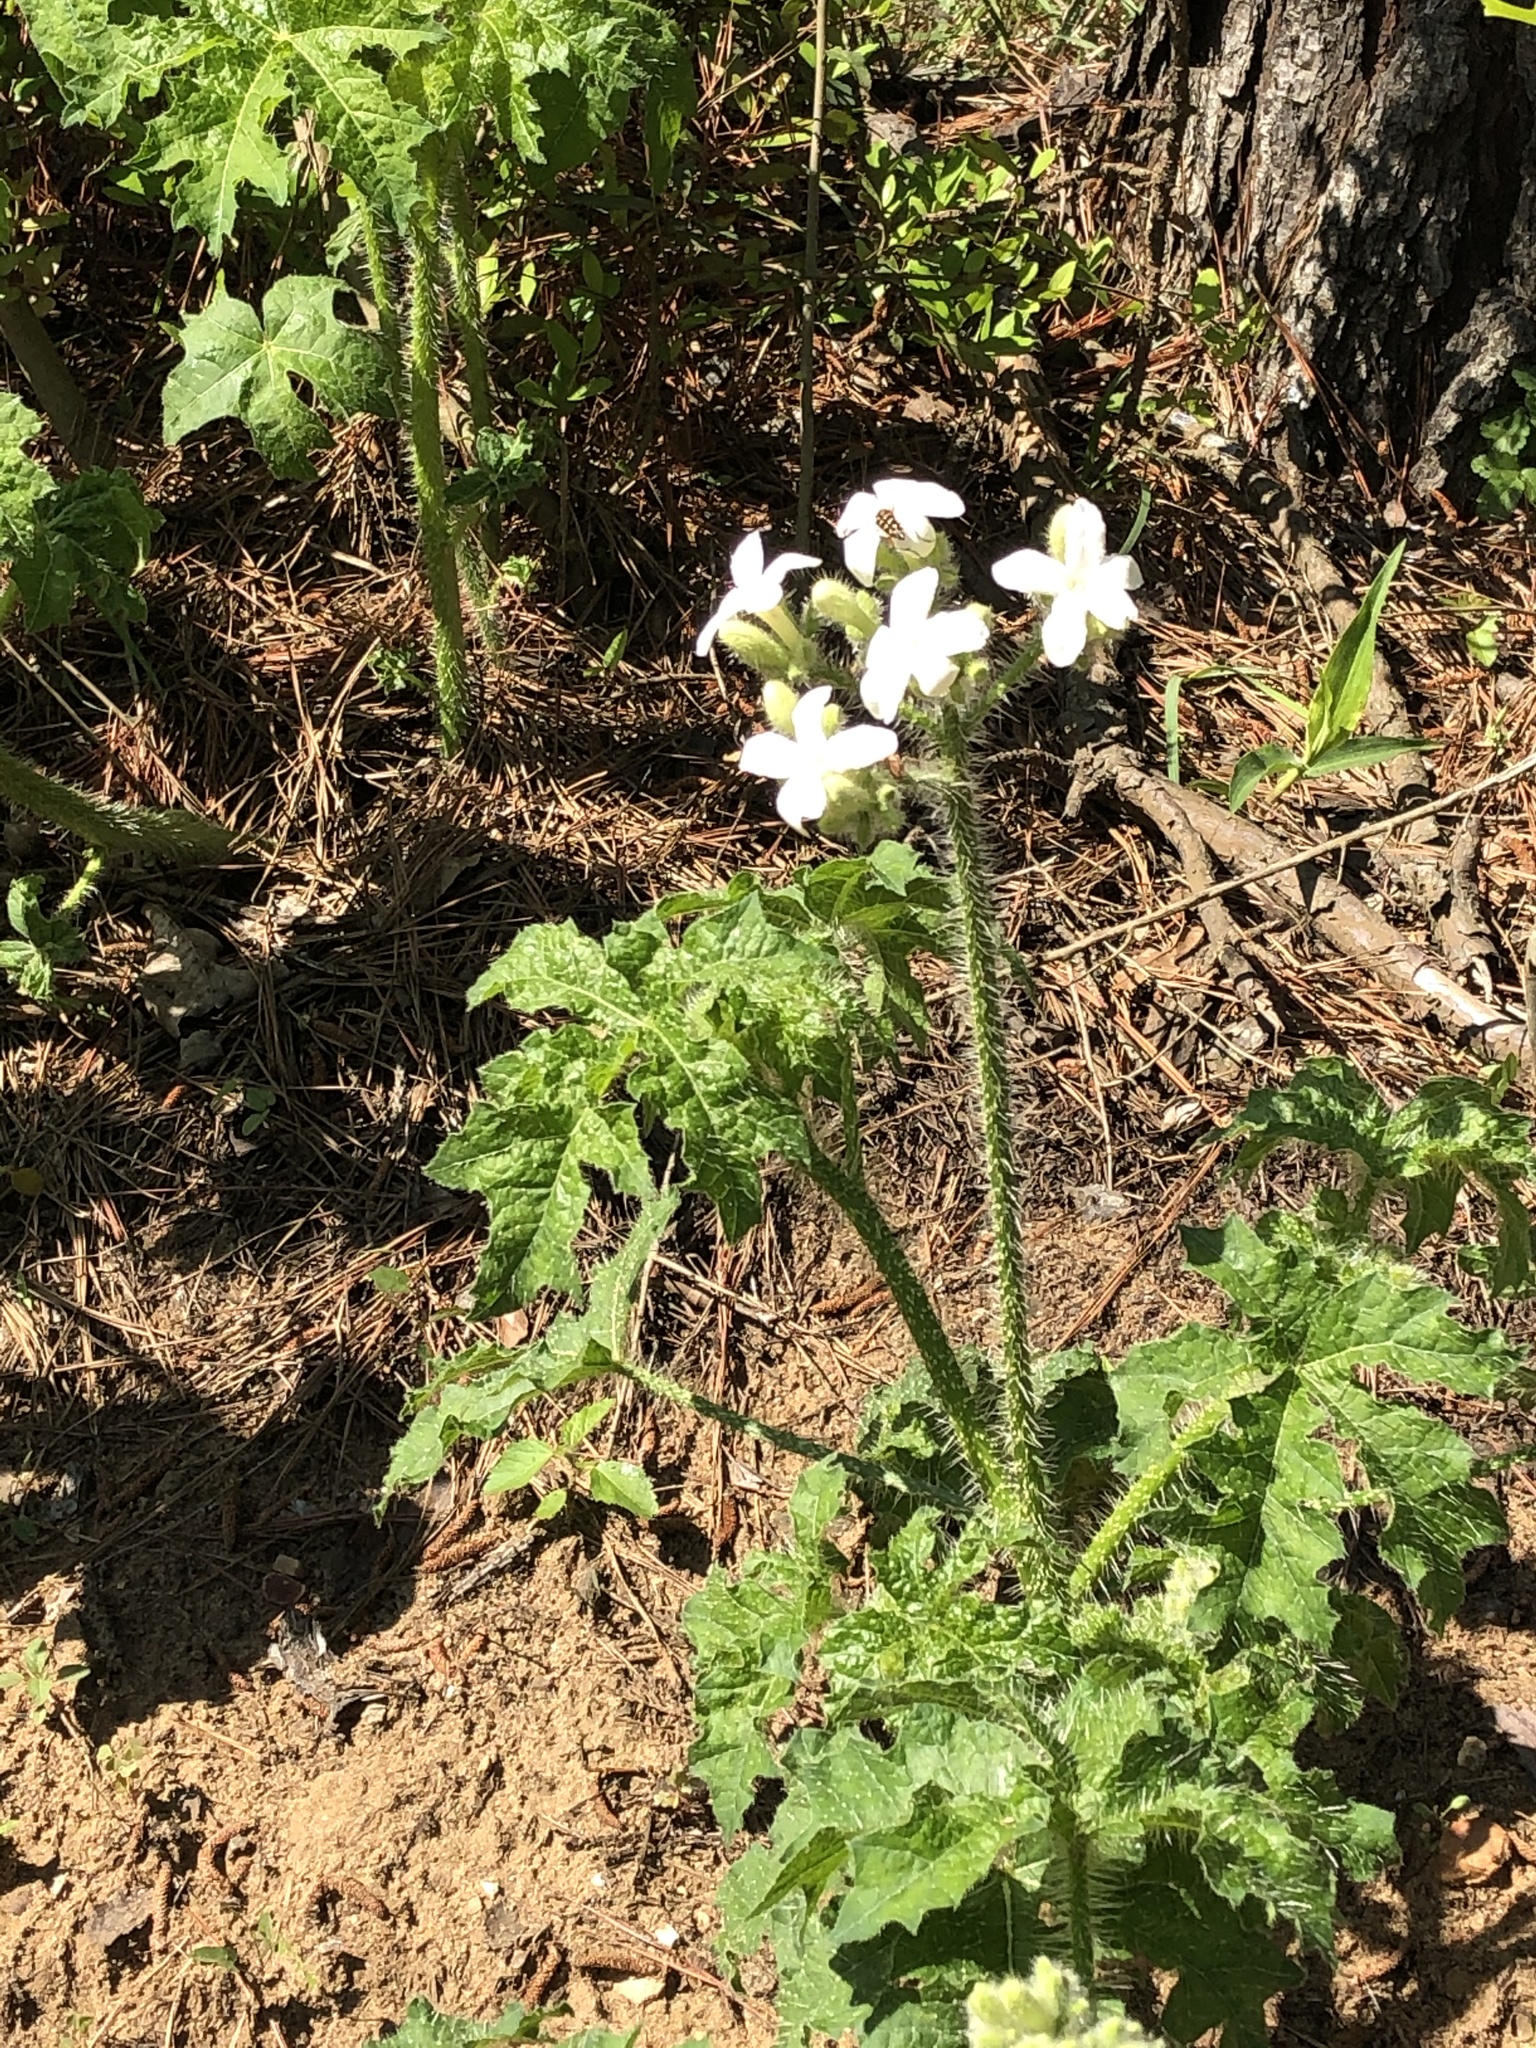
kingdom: Plantae
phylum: Tracheophyta
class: Magnoliopsida
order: Malpighiales
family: Euphorbiaceae
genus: Cnidoscolus
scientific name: Cnidoscolus texanus
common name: Texas bull-nettle
